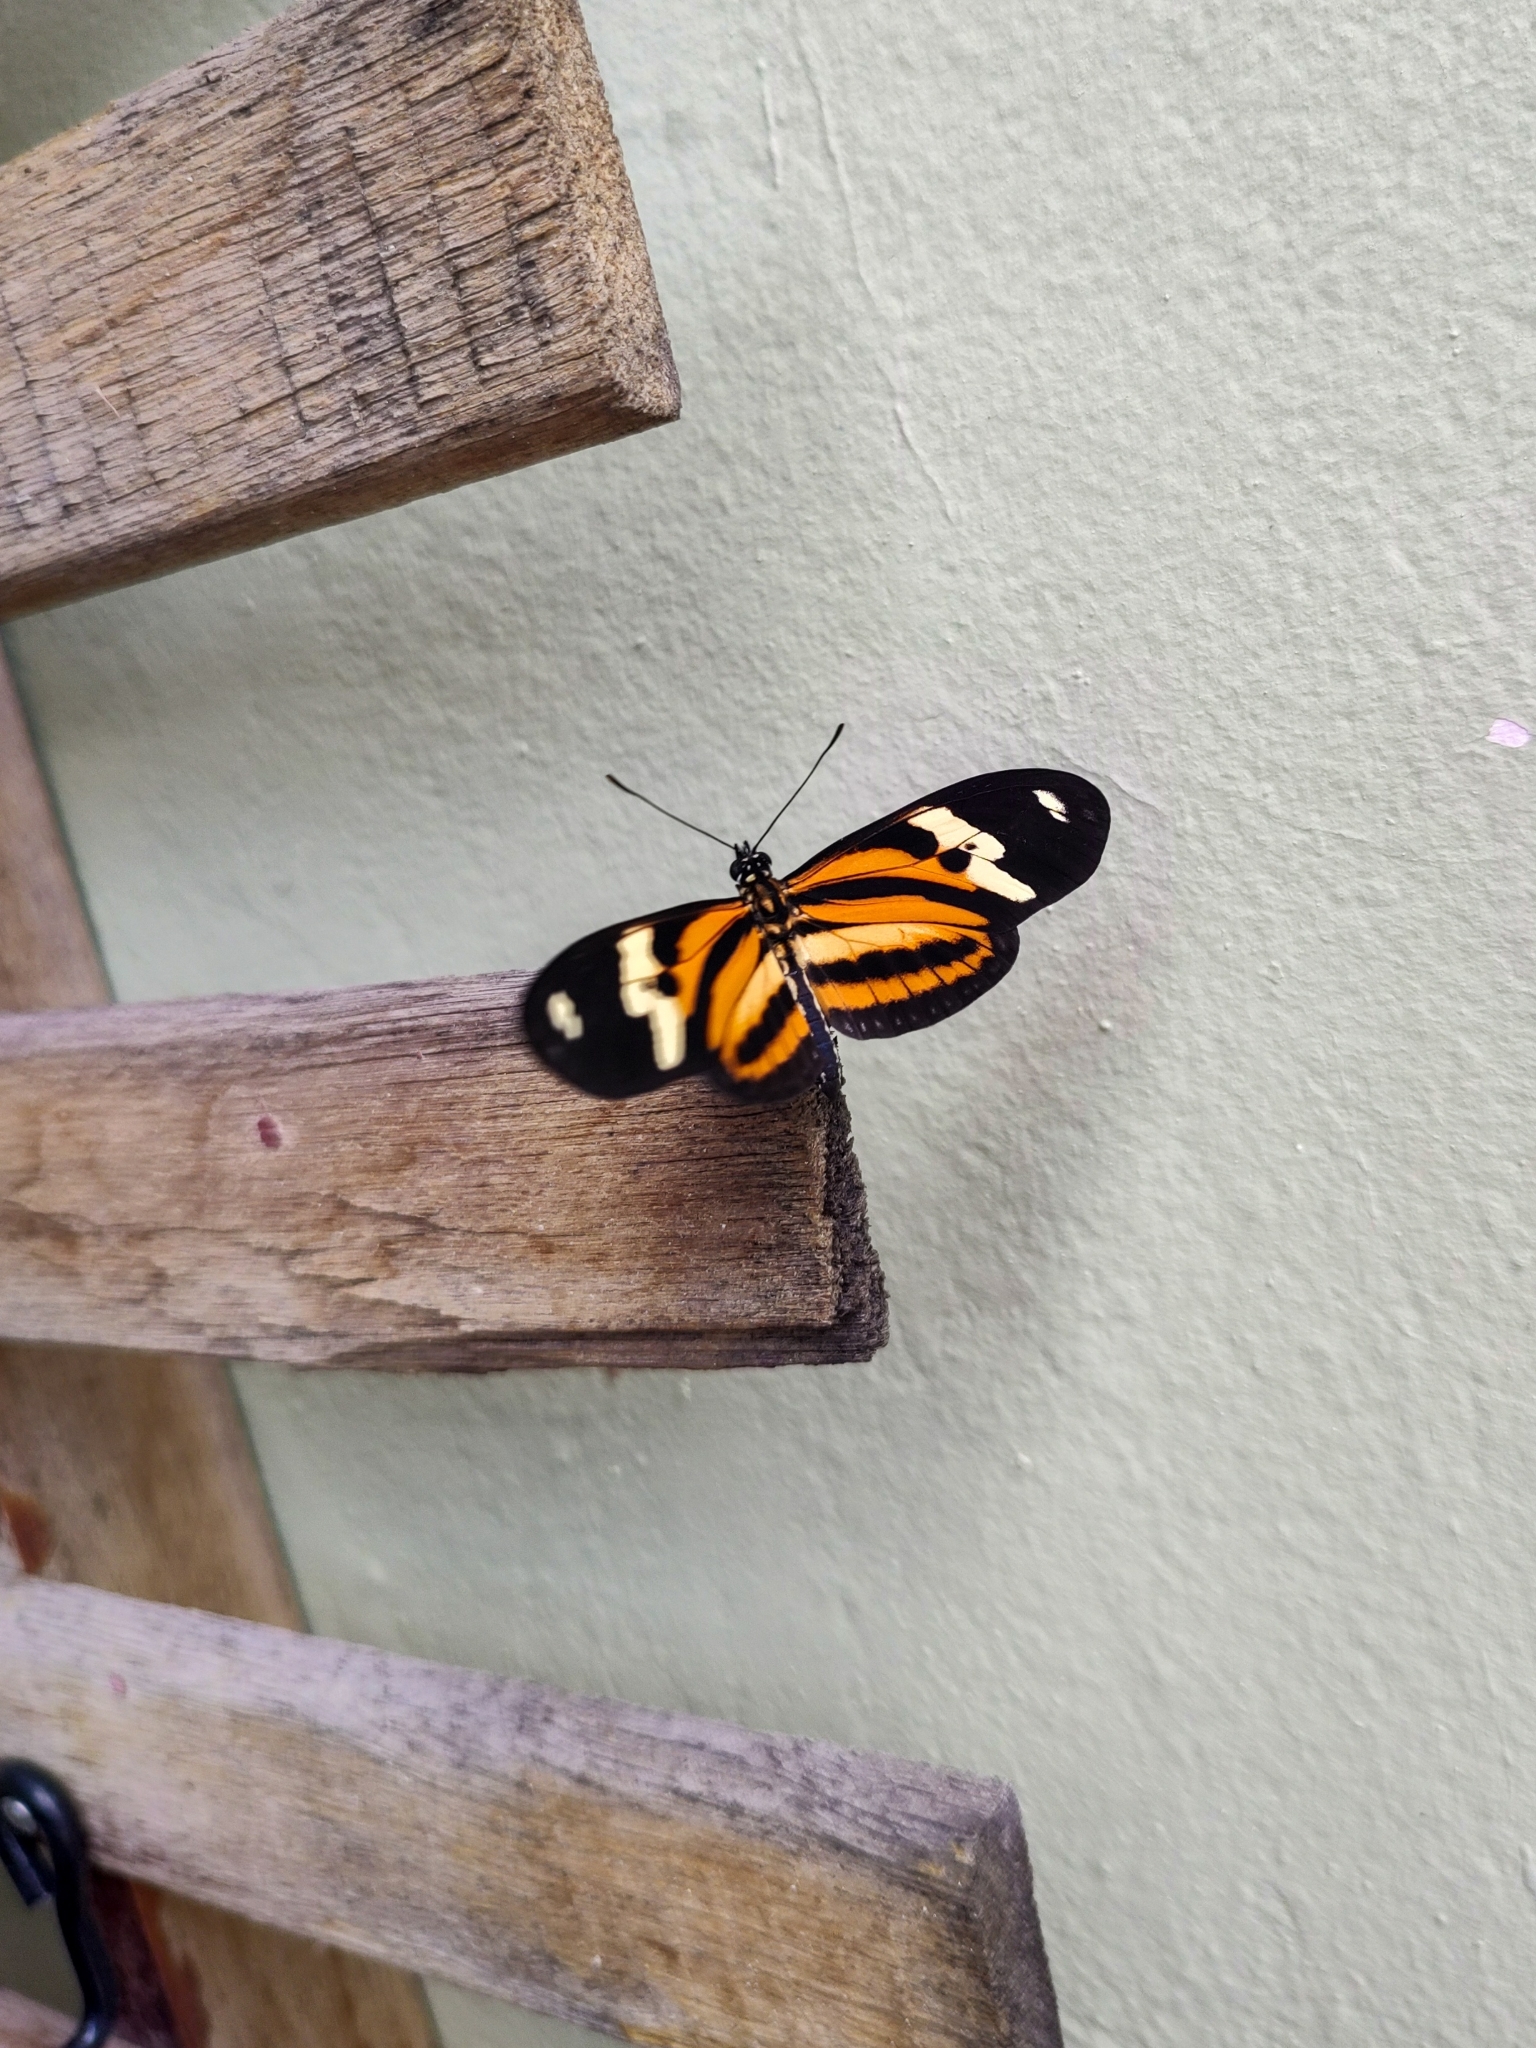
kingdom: Animalia
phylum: Arthropoda
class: Insecta
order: Lepidoptera
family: Nymphalidae
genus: Eueides
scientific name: Eueides isabella
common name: Isabella's longwing
